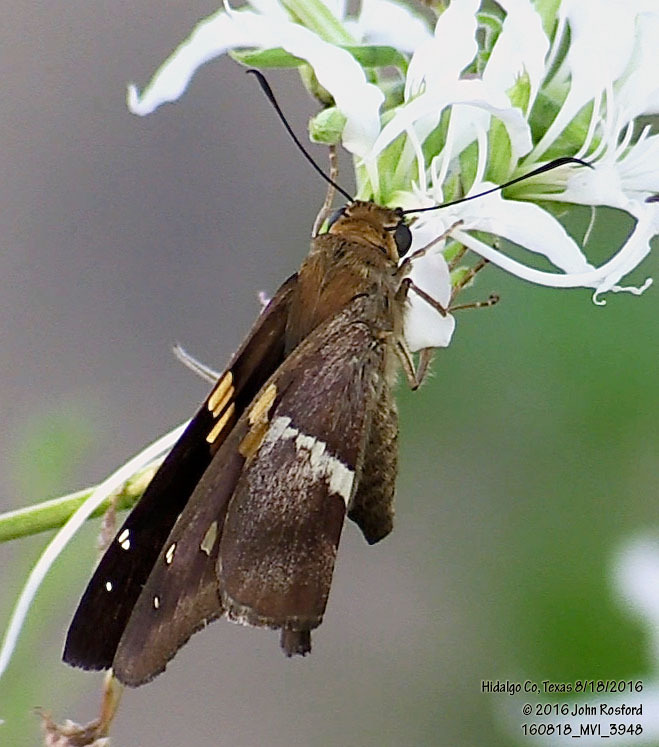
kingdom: Animalia
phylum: Arthropoda
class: Insecta
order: Lepidoptera
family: Hesperiidae
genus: Aguna
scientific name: Aguna asander
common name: Gold-spotted aguna
